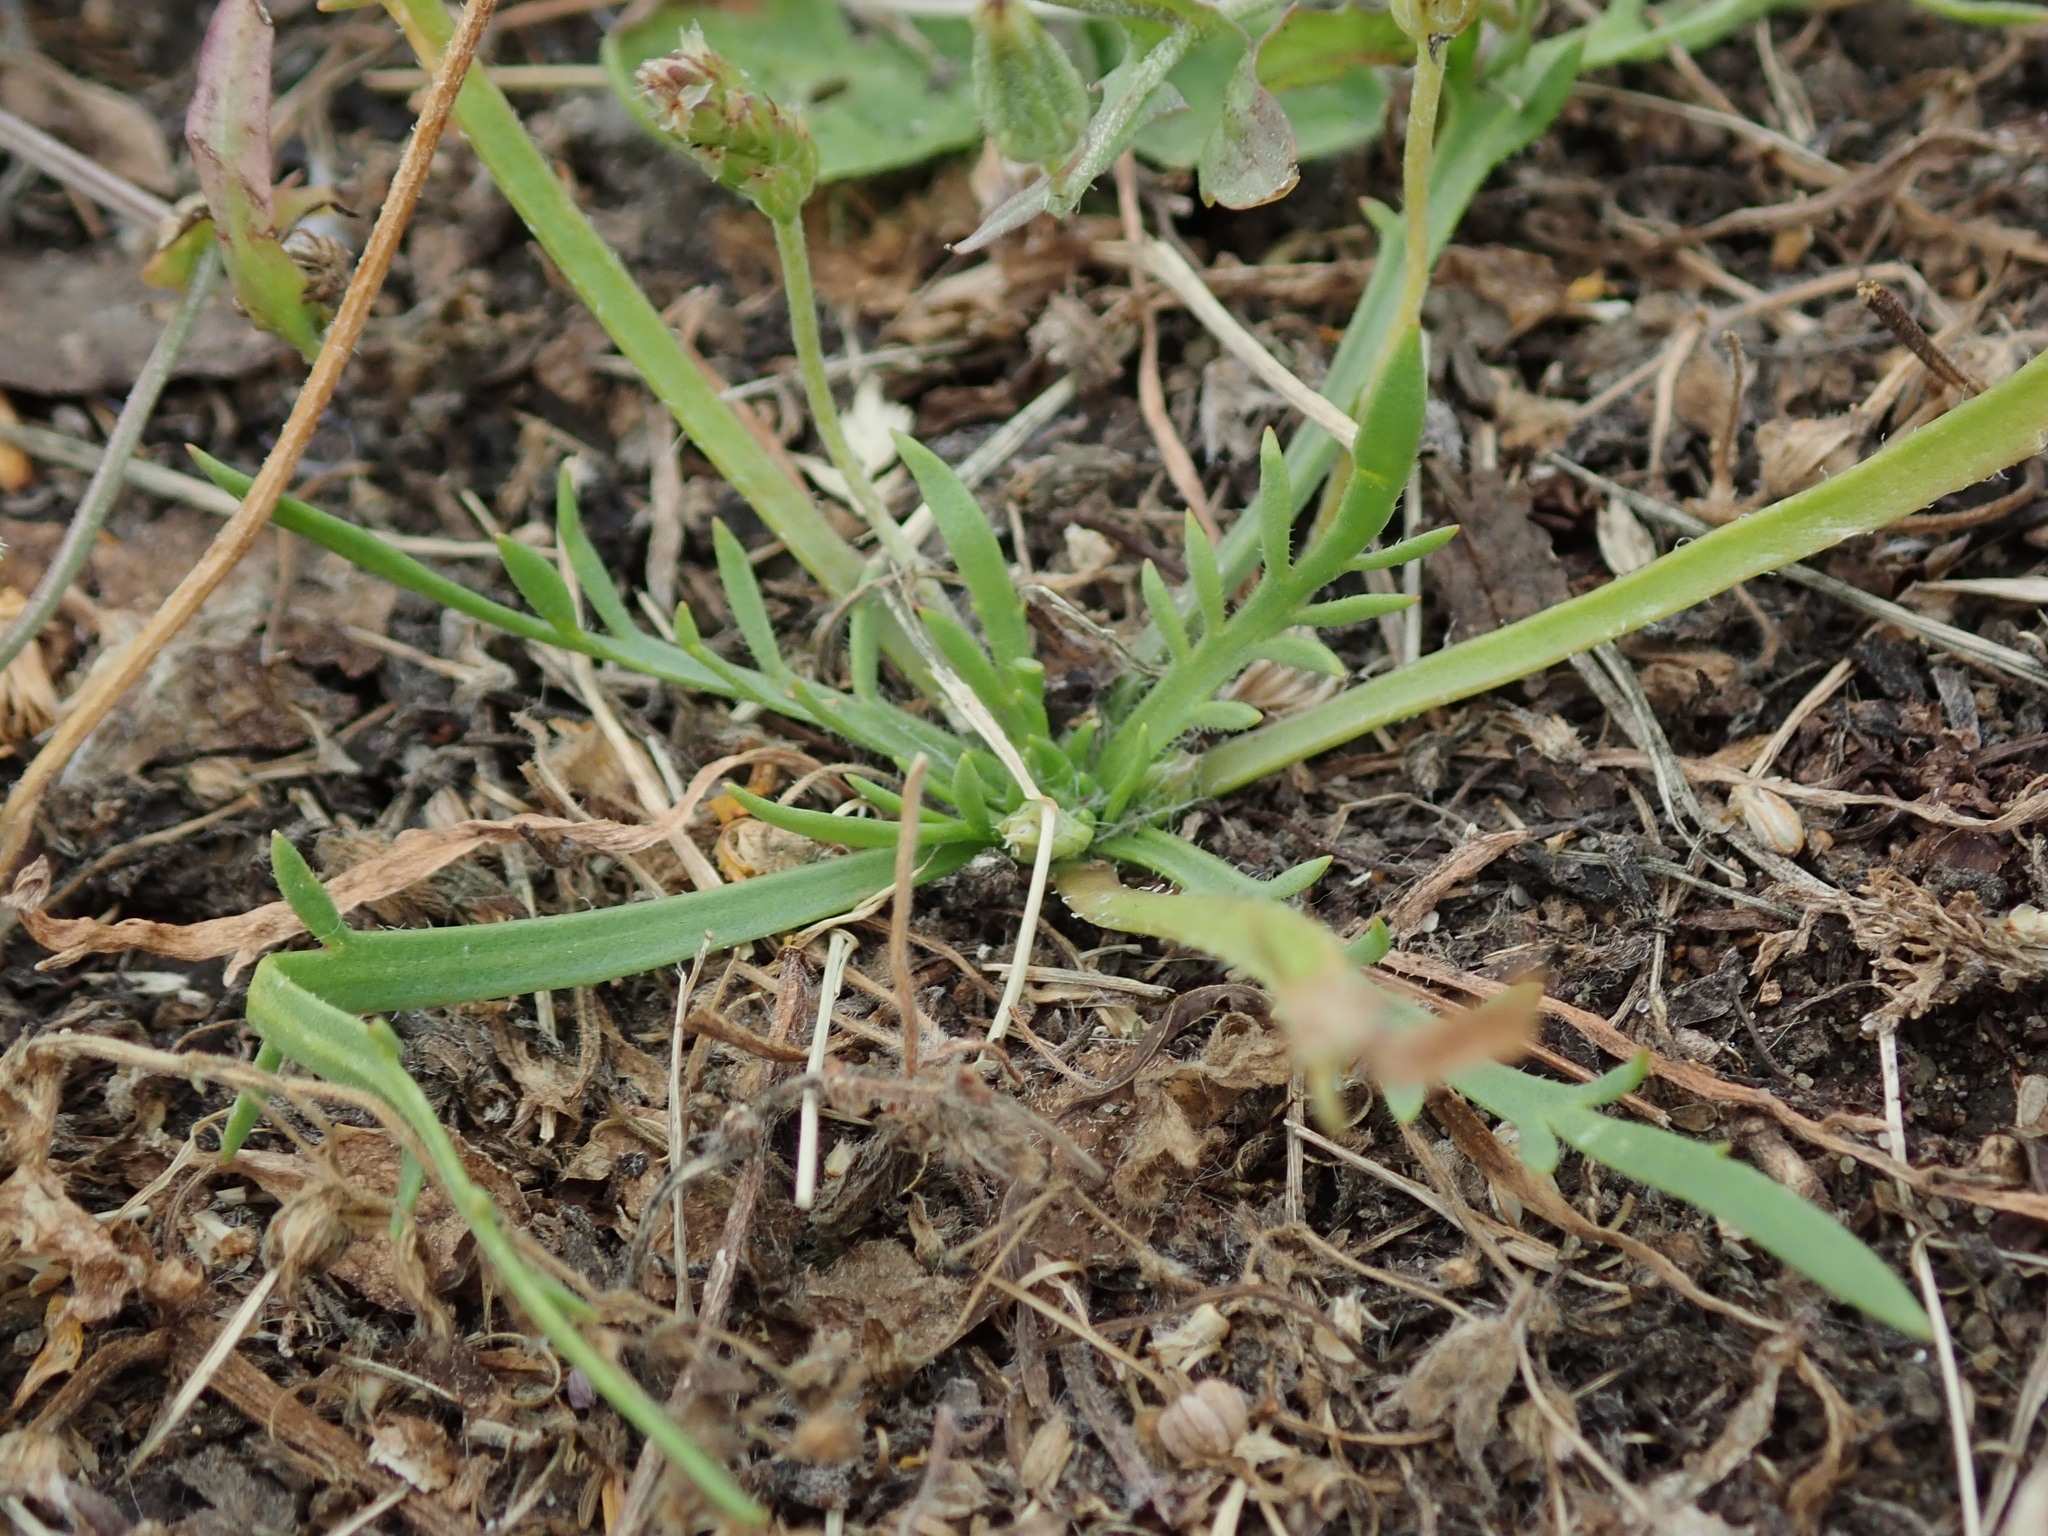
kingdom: Plantae
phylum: Tracheophyta
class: Magnoliopsida
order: Lamiales
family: Plantaginaceae
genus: Plantago
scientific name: Plantago coronopus
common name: Buck's-horn plantain
